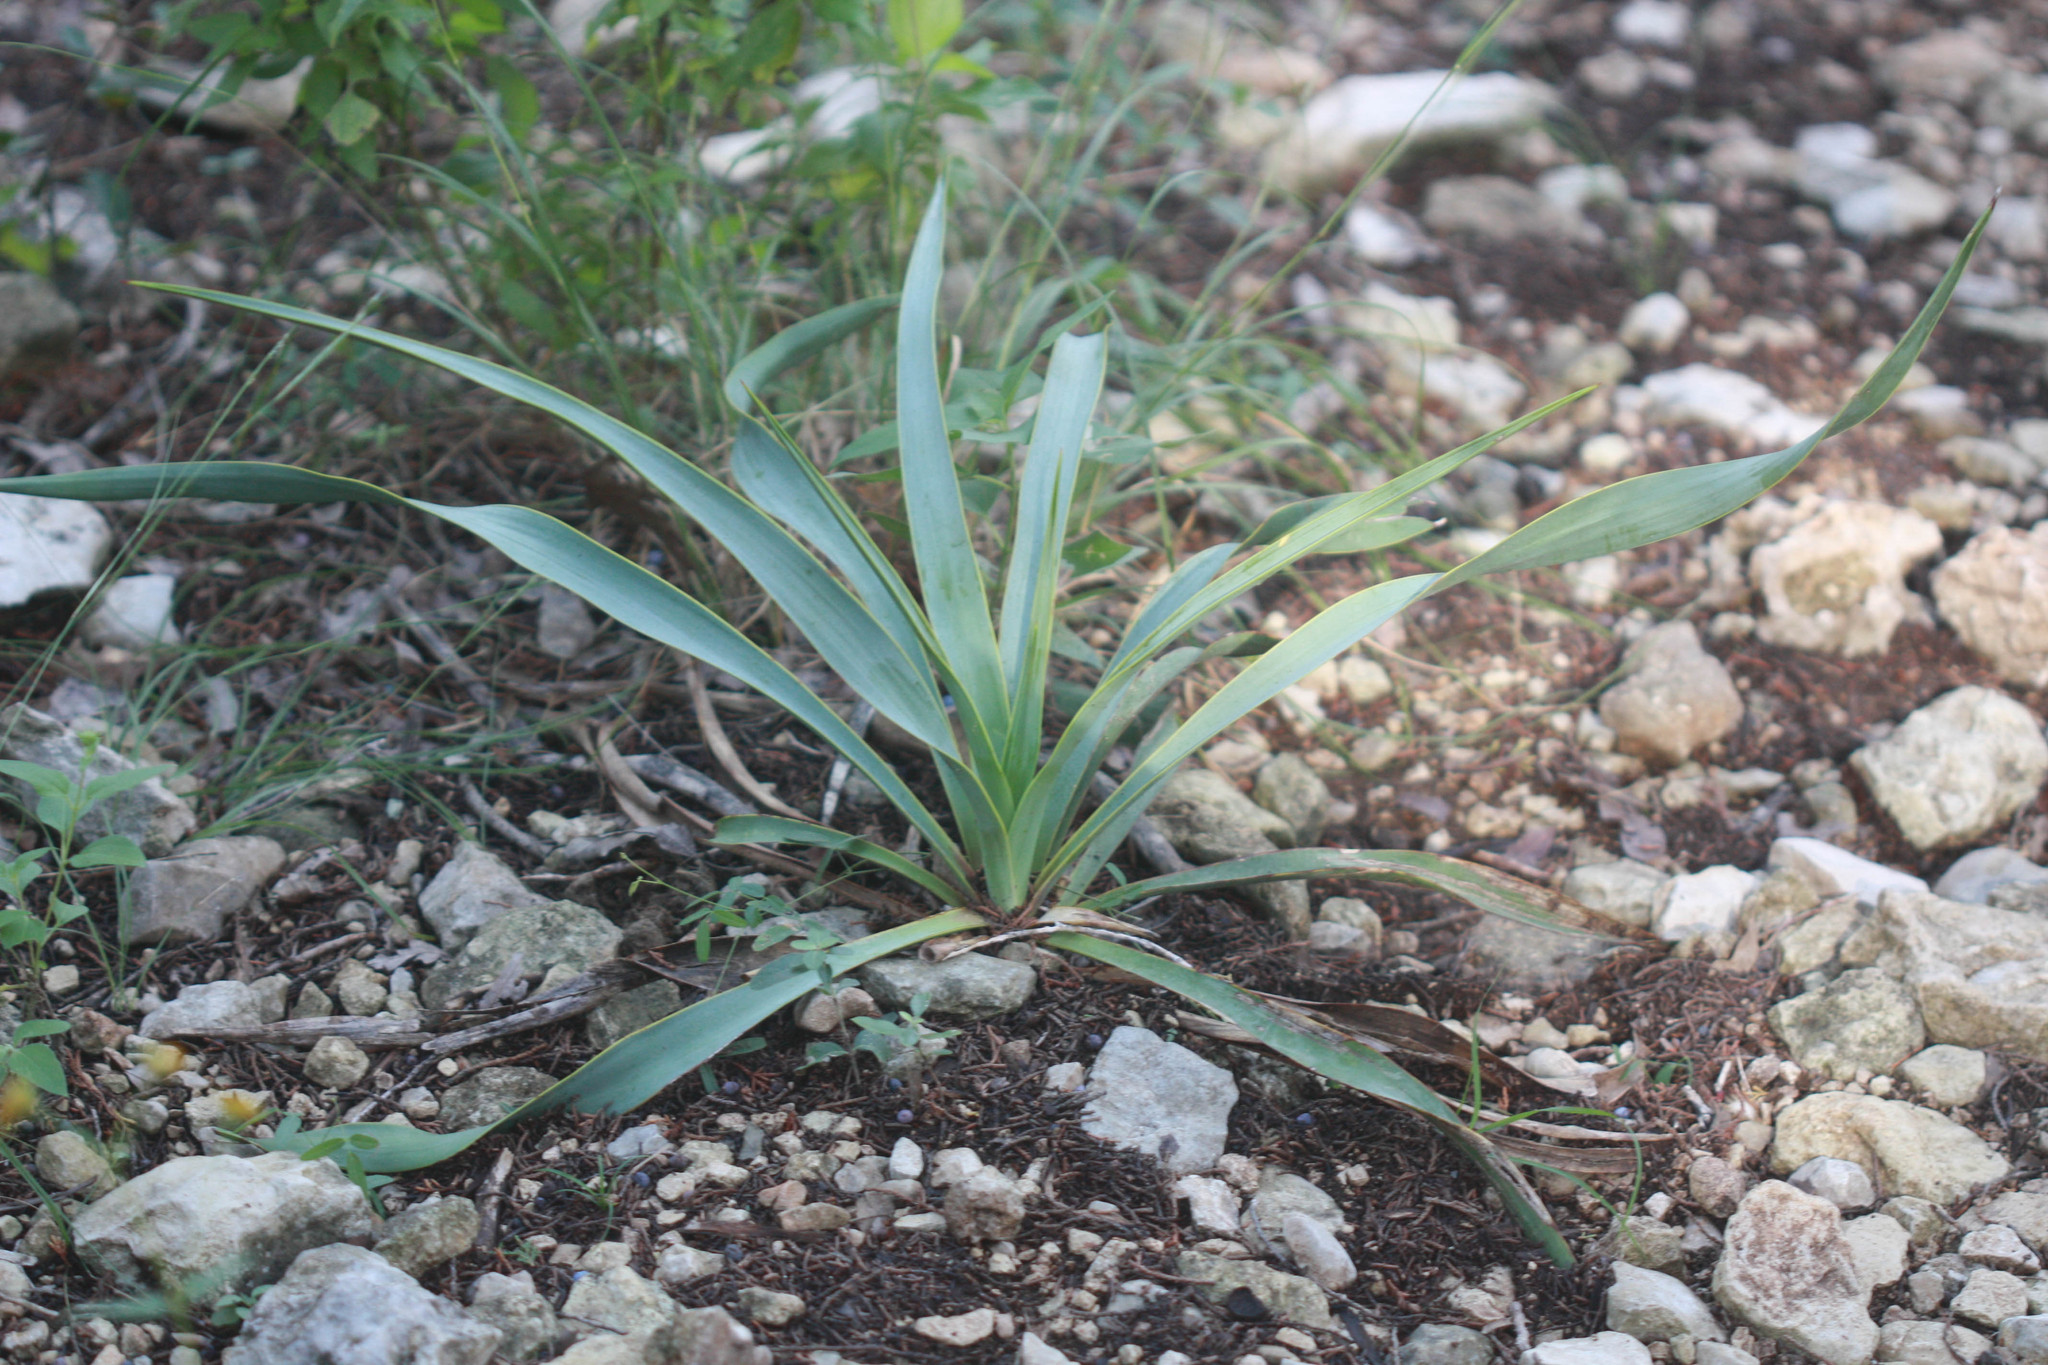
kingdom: Plantae
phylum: Tracheophyta
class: Liliopsida
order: Asparagales
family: Asparagaceae
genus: Yucca
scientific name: Yucca rupicola
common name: Twisted-leaf spanish-dagger
